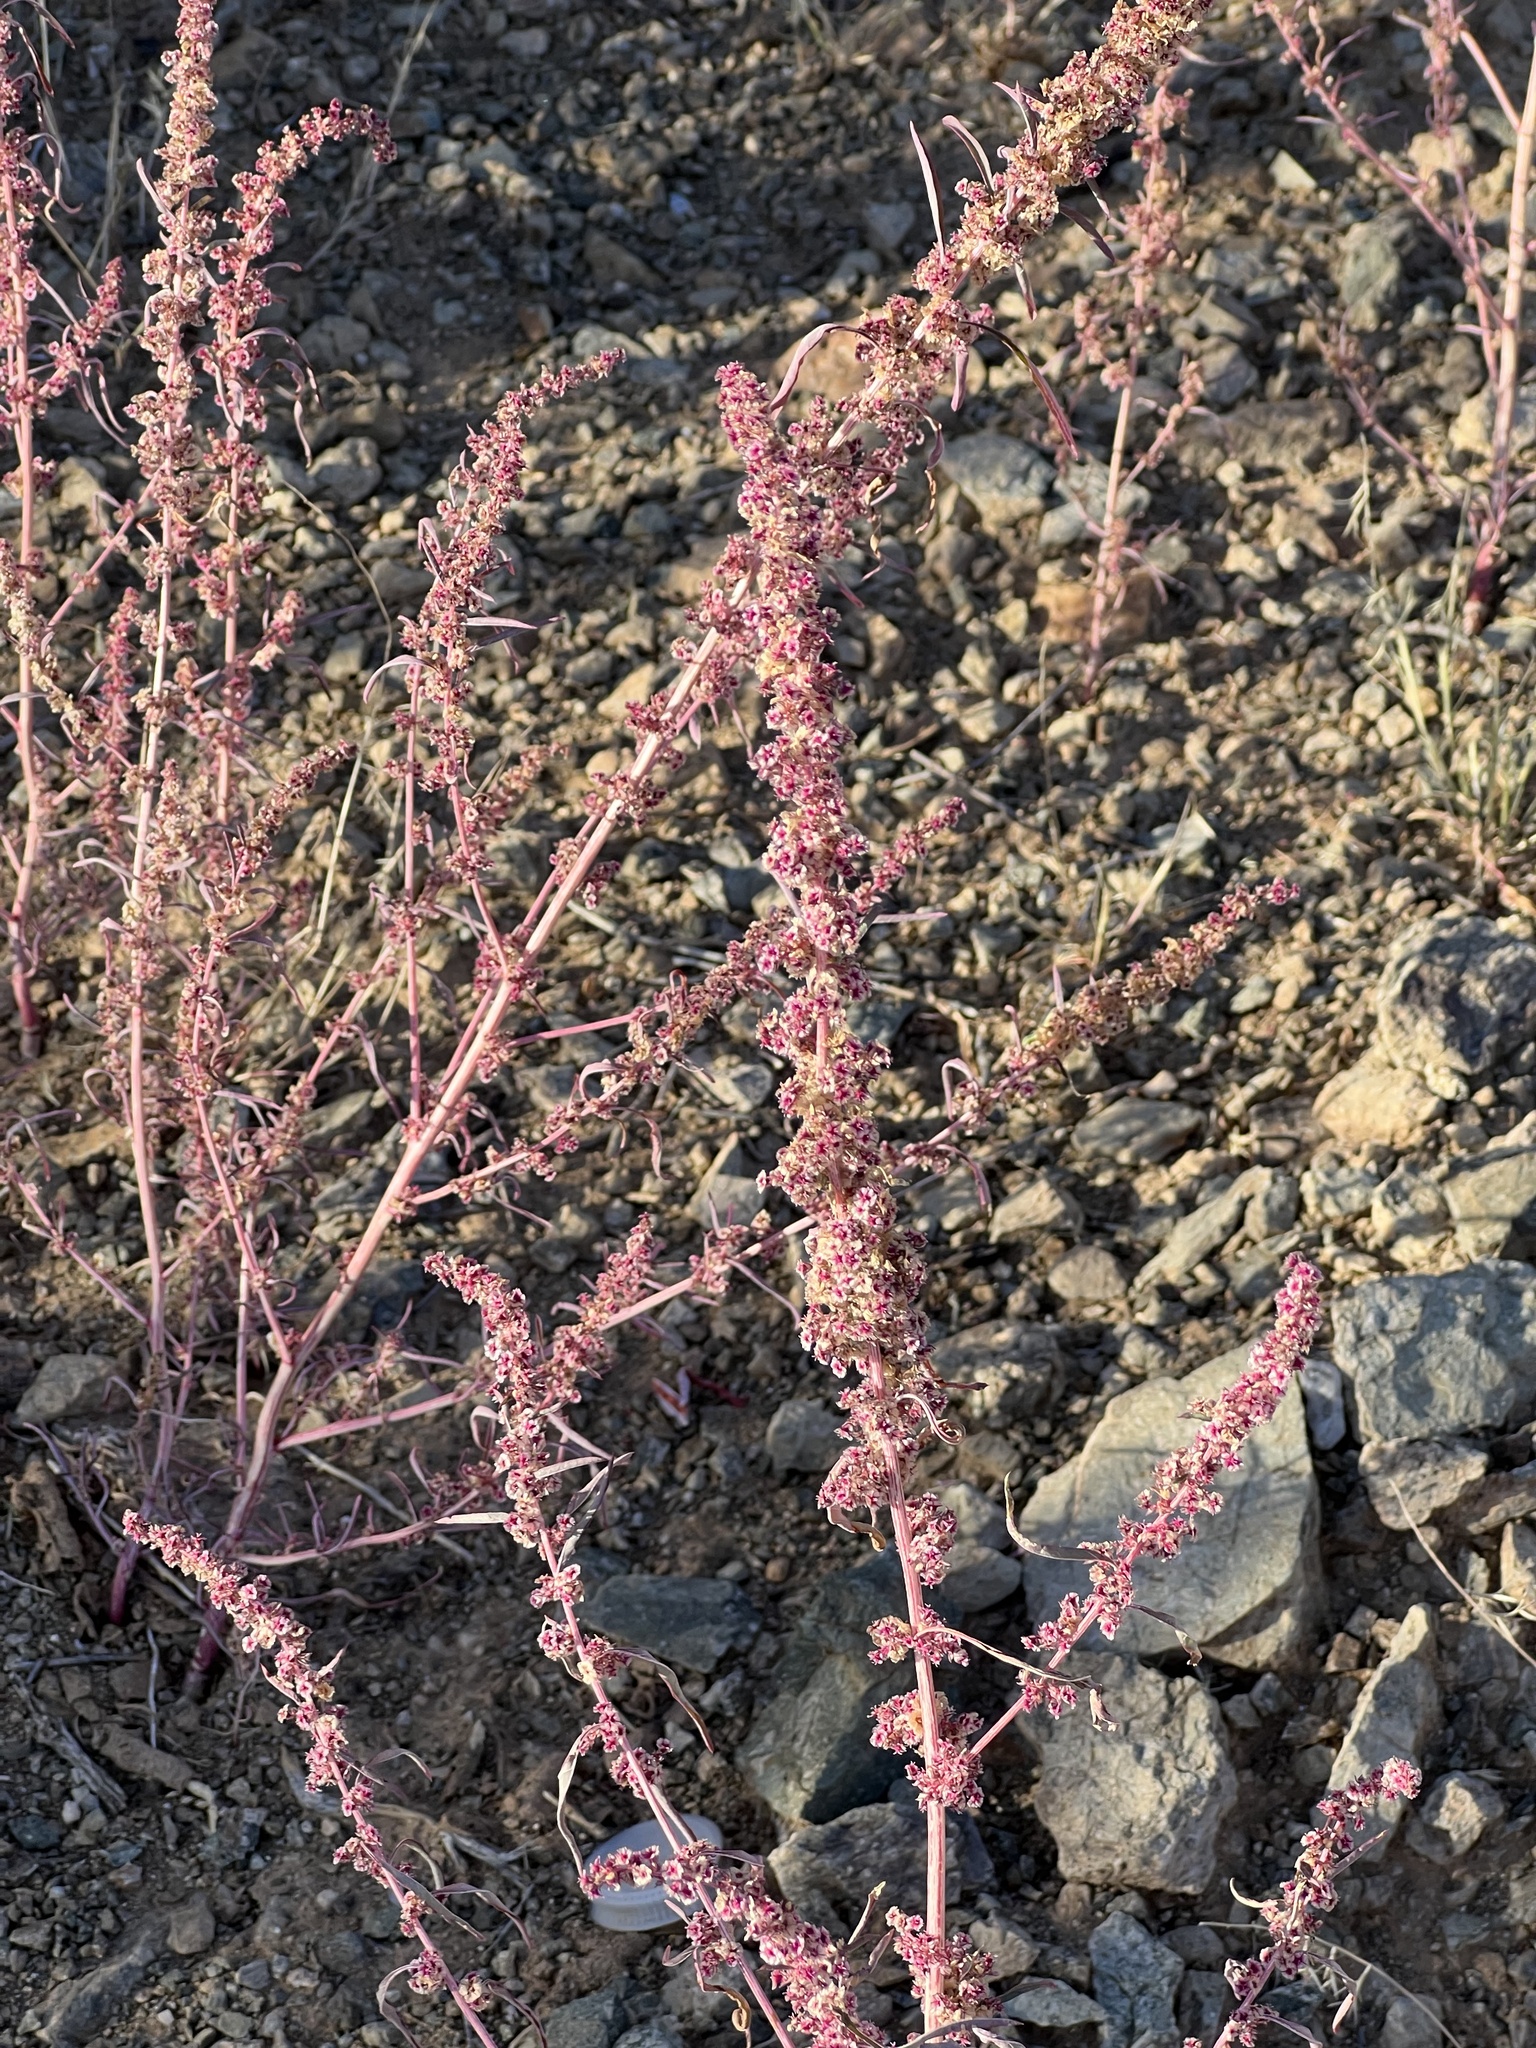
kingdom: Plantae
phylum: Tracheophyta
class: Magnoliopsida
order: Caryophyllales
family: Amaranthaceae
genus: Amaranthus
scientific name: Amaranthus fimbriatus
